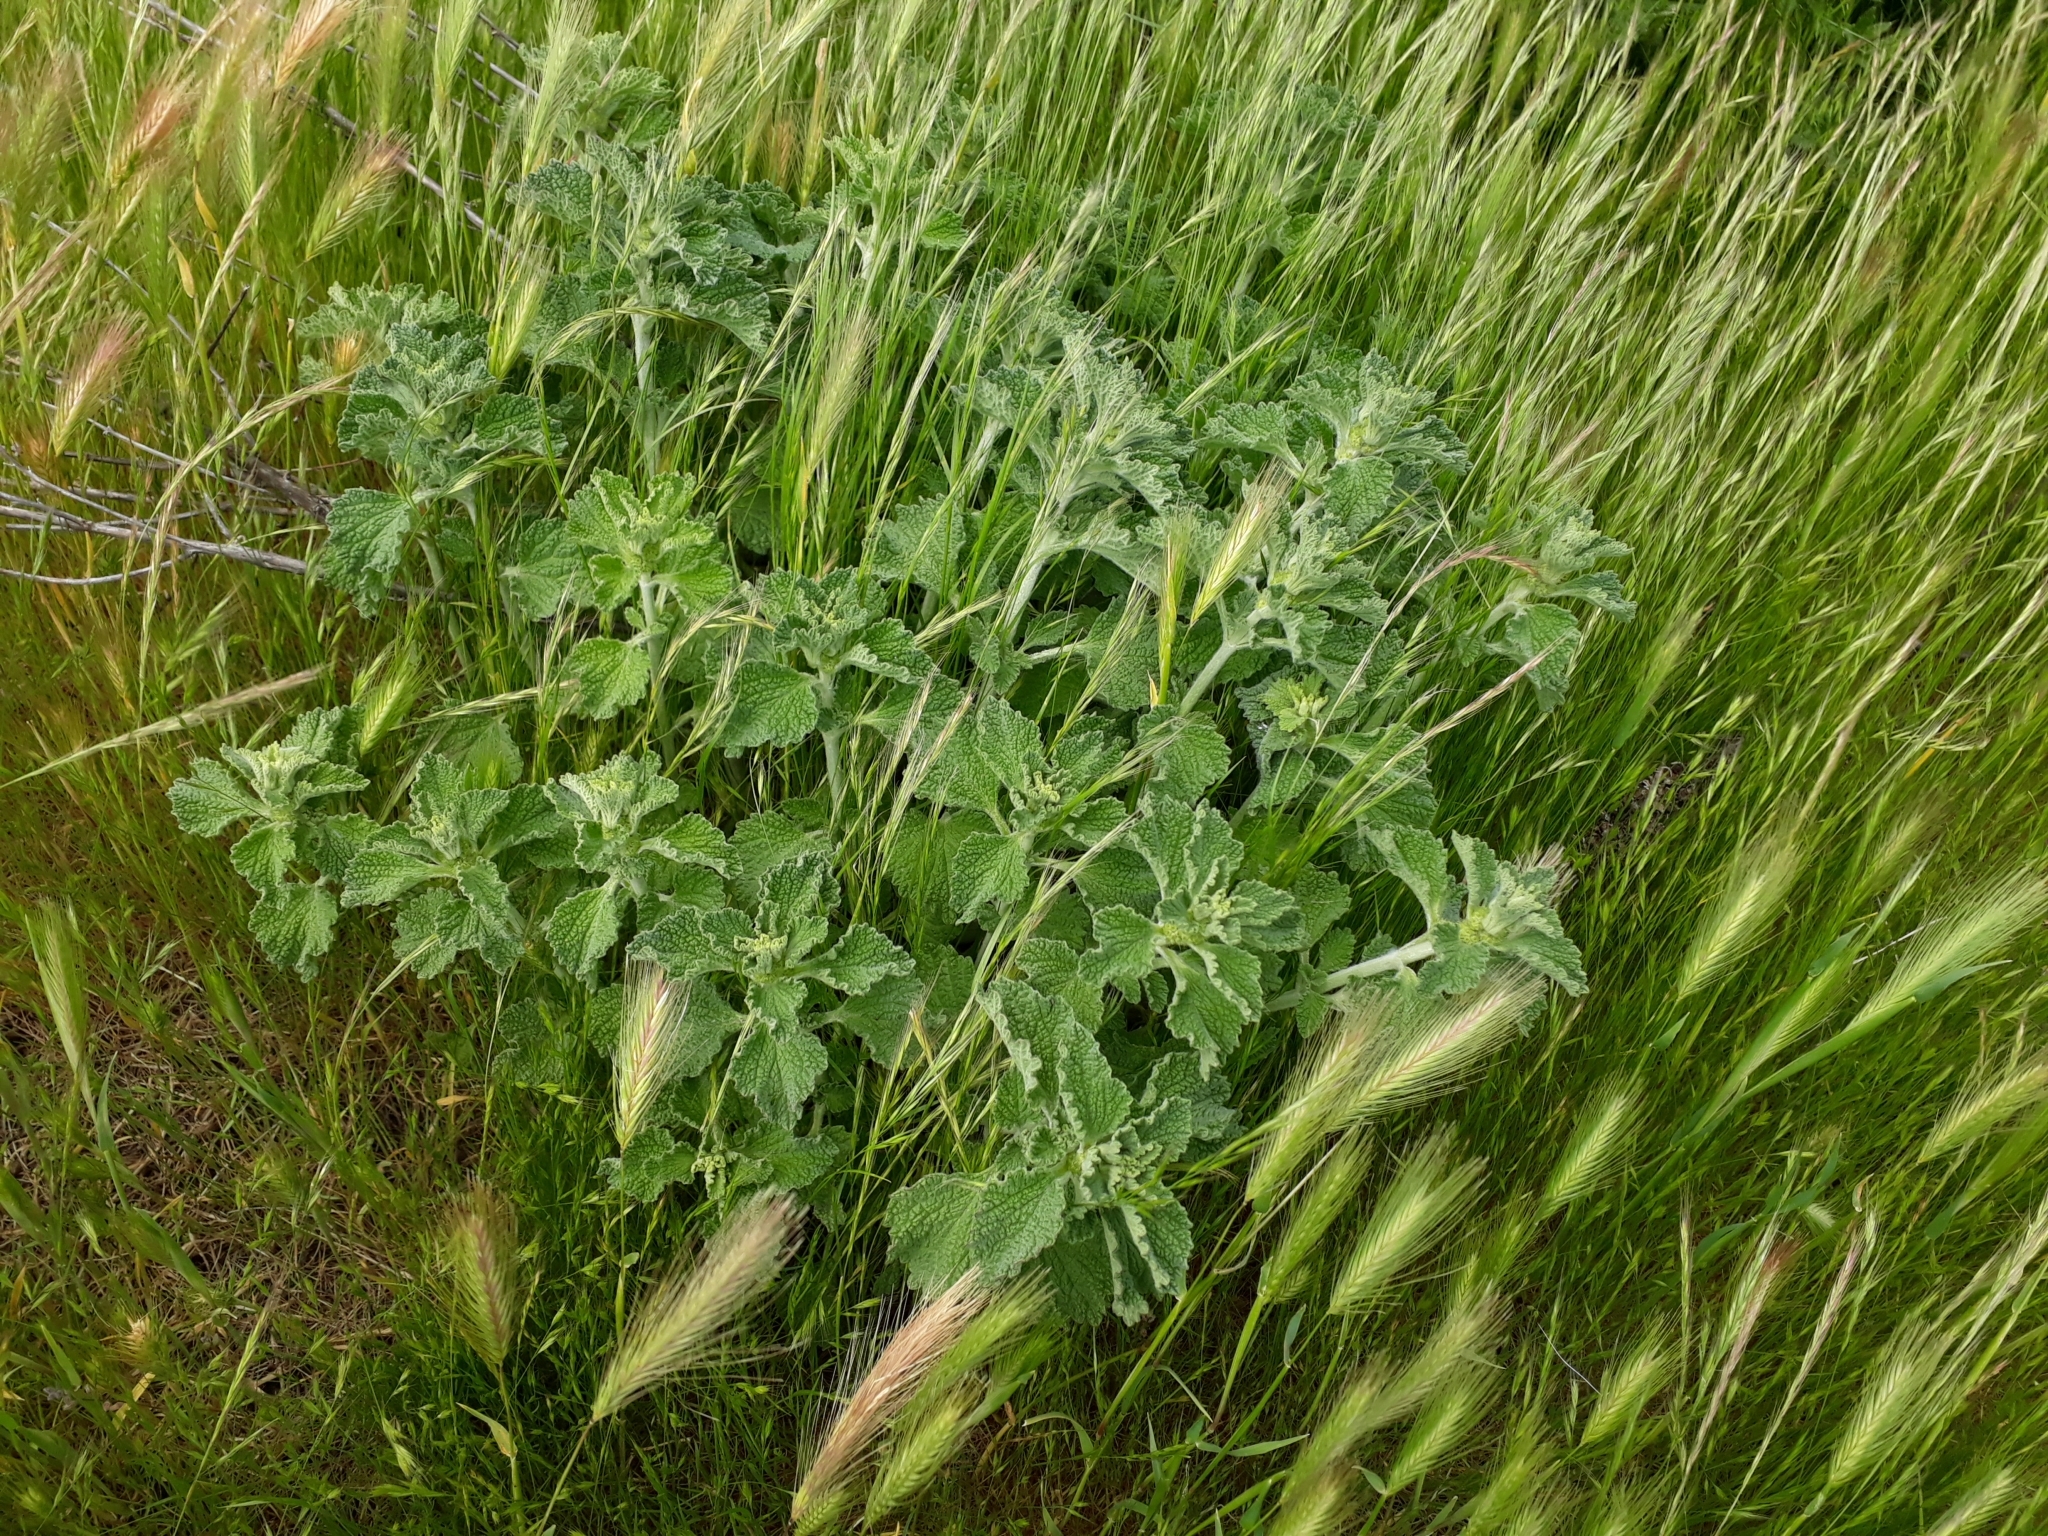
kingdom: Plantae
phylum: Tracheophyta
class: Magnoliopsida
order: Lamiales
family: Lamiaceae
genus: Marrubium
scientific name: Marrubium vulgare
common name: Horehound
